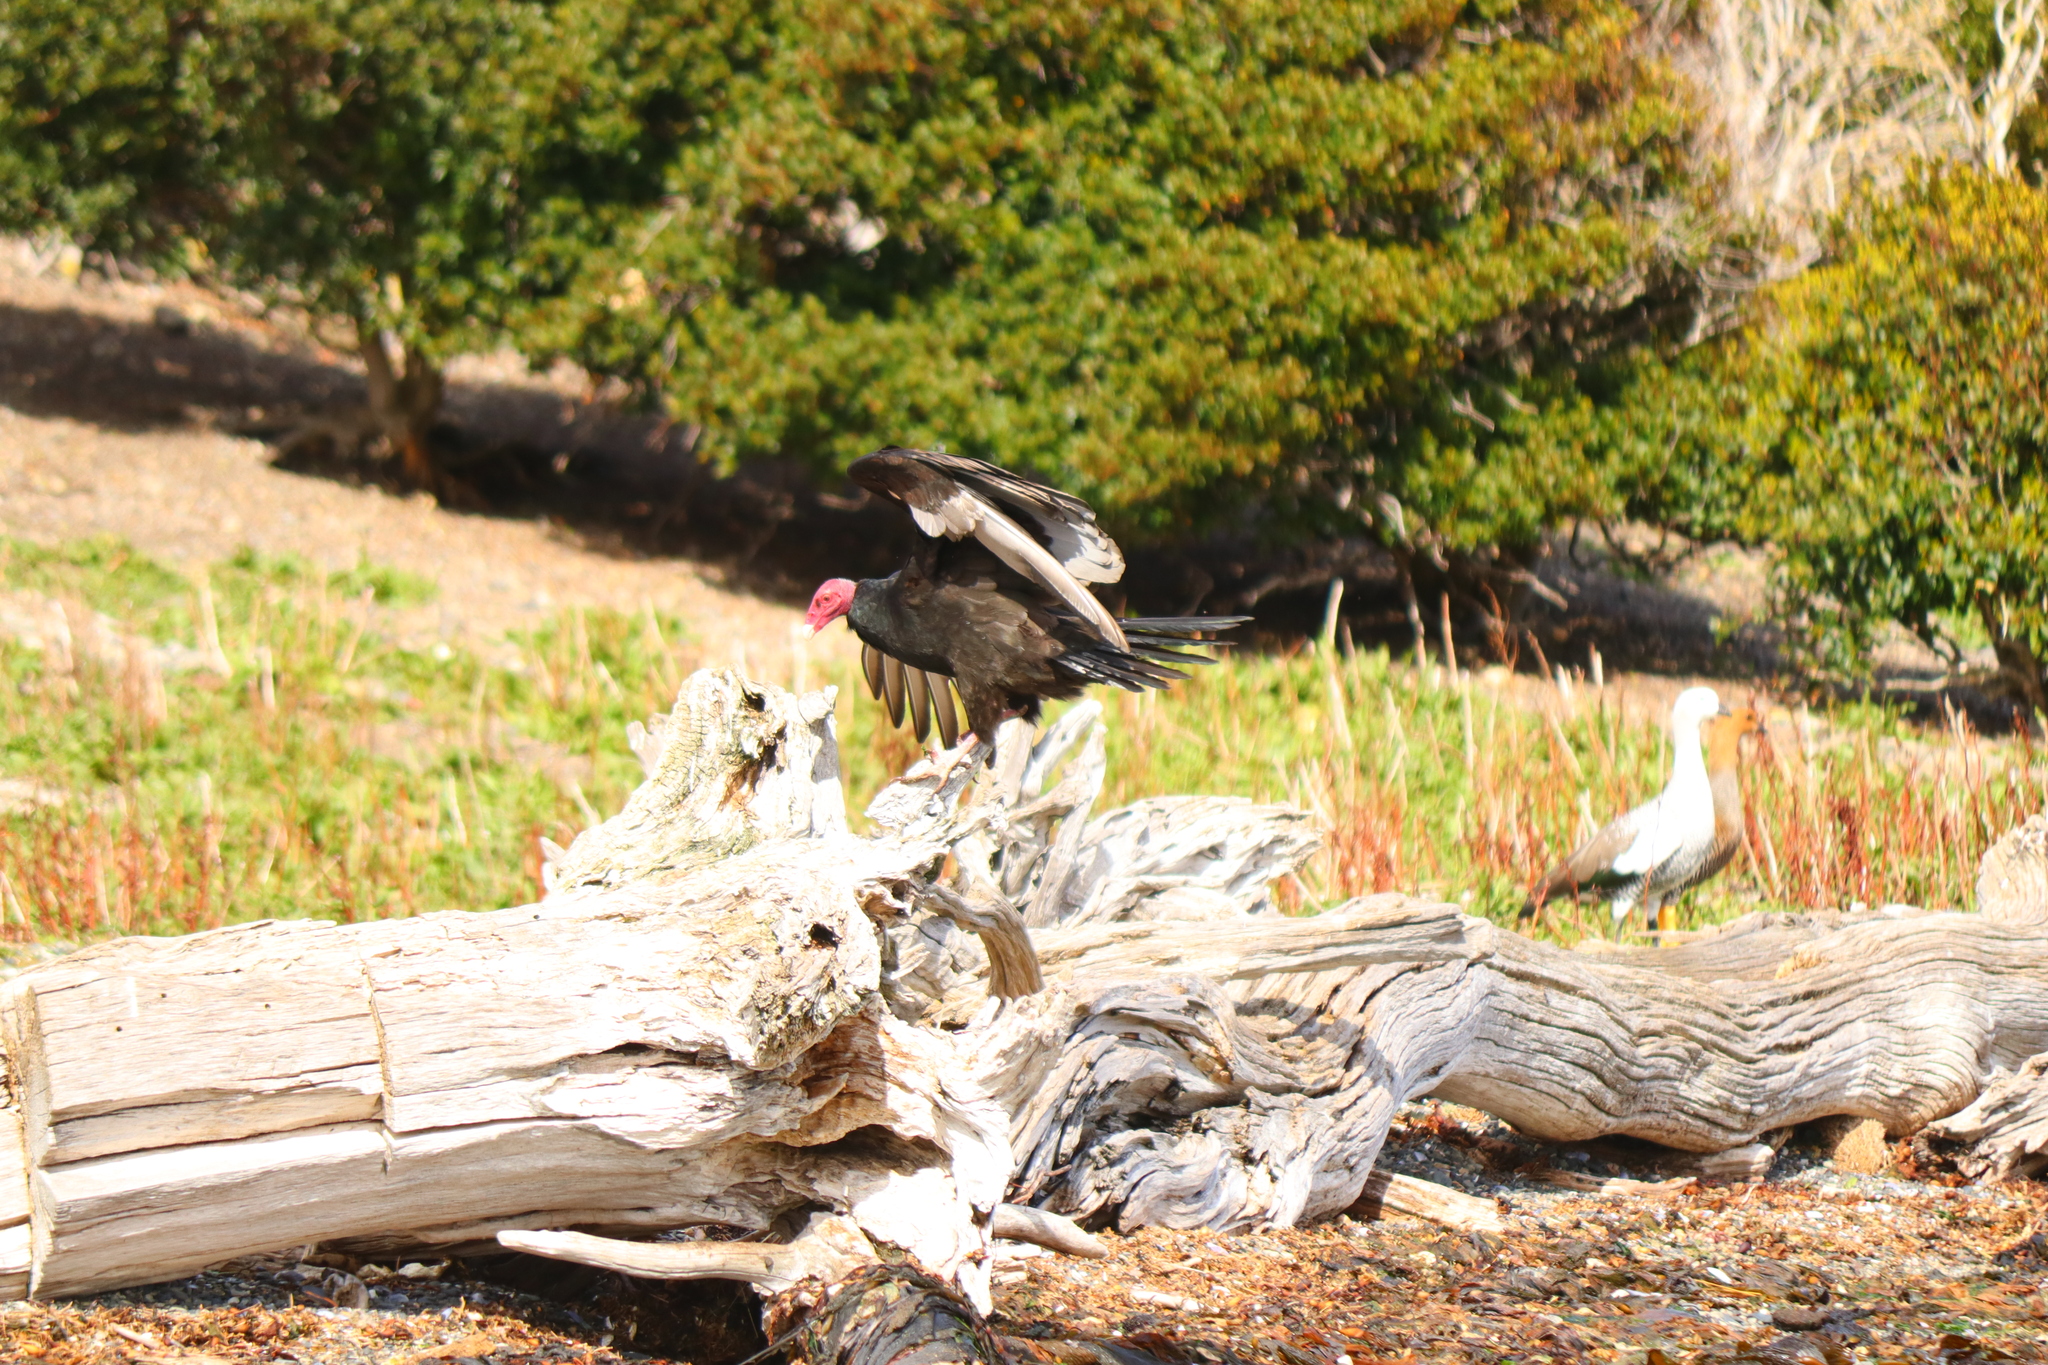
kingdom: Animalia
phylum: Chordata
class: Aves
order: Accipitriformes
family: Cathartidae
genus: Cathartes
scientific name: Cathartes aura
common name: Turkey vulture
